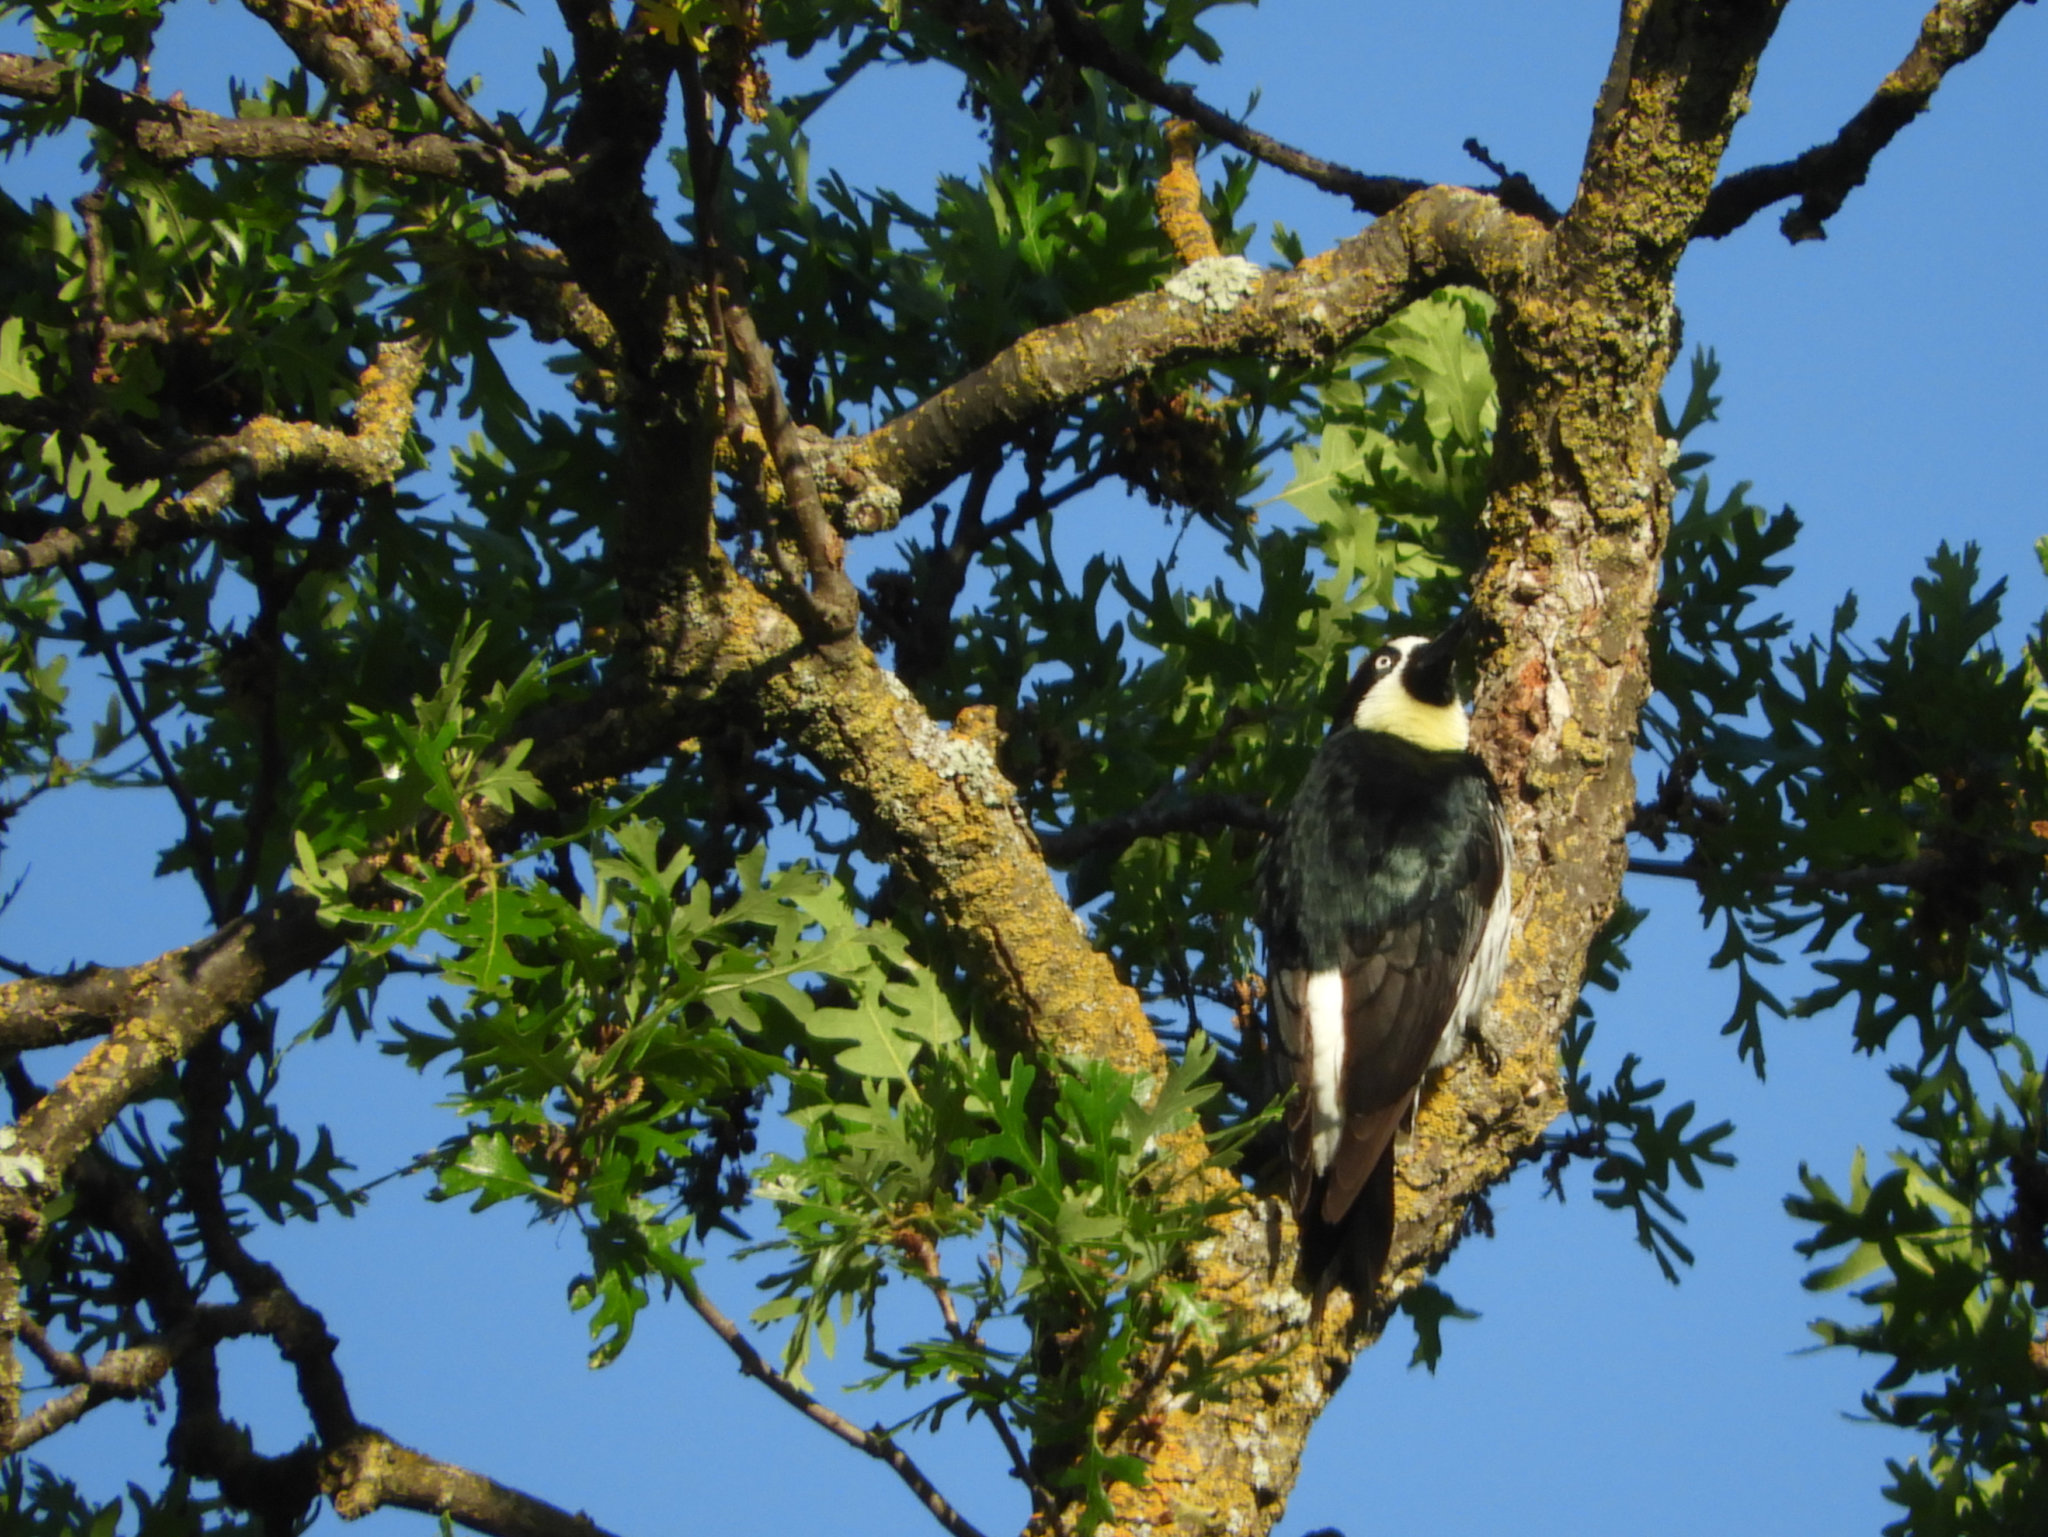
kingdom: Animalia
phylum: Chordata
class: Aves
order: Piciformes
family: Picidae
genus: Melanerpes
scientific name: Melanerpes formicivorus
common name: Acorn woodpecker
